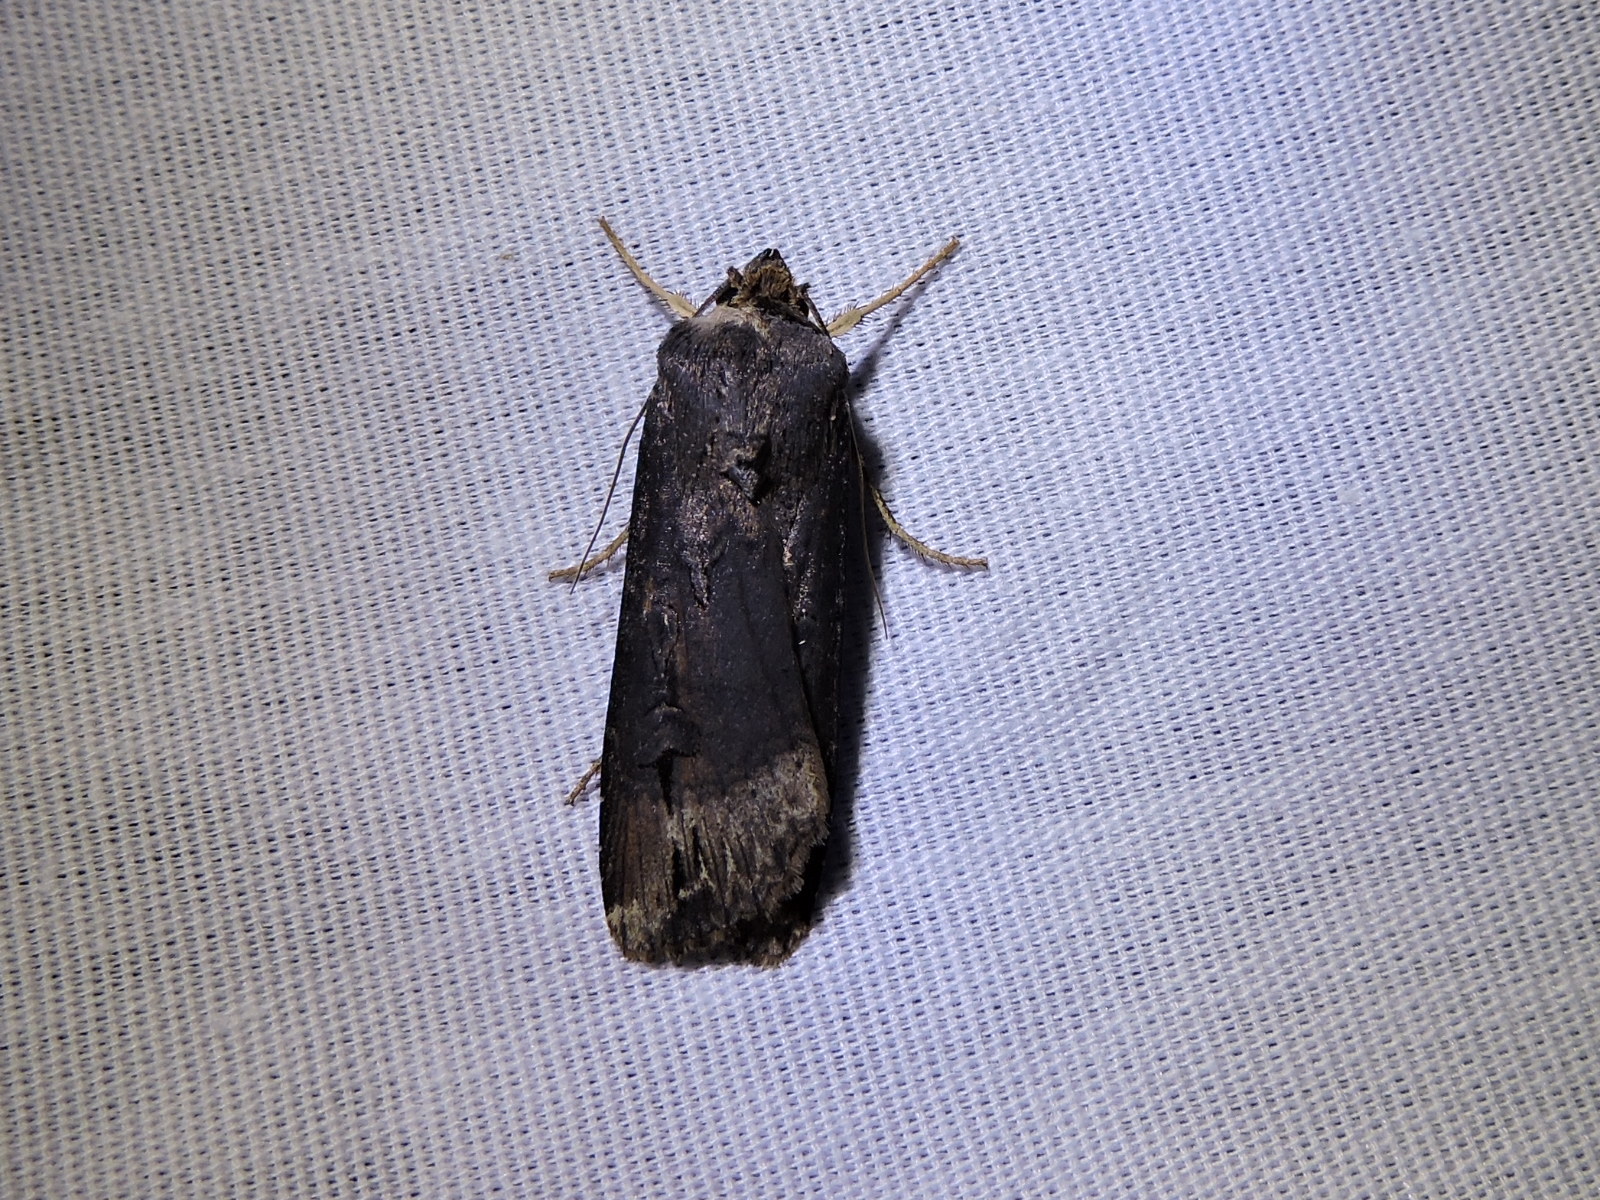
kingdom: Animalia
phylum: Arthropoda
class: Insecta
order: Lepidoptera
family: Noctuidae
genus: Agrotis
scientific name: Agrotis ipsilon
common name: Dark sword-grass
